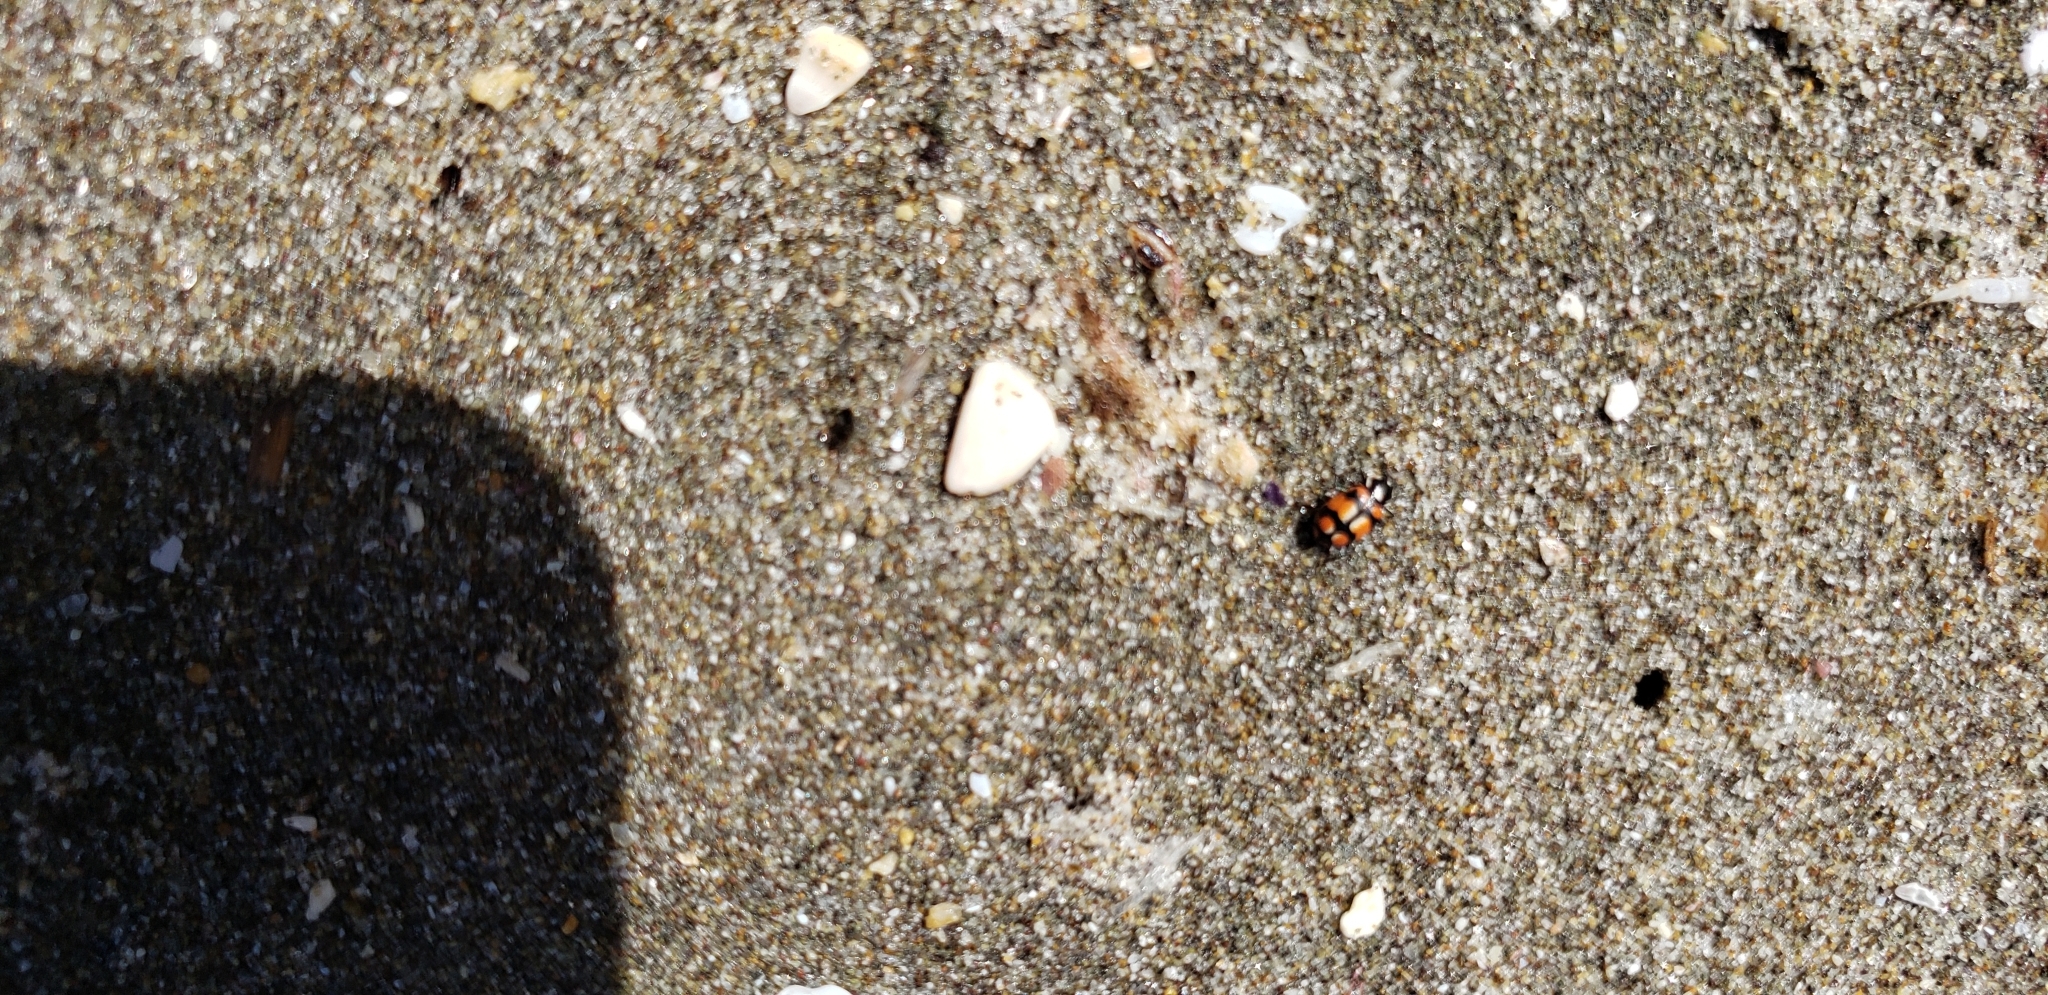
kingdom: Animalia
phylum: Arthropoda
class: Insecta
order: Coleoptera
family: Coccinellidae
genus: Eriopis
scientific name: Eriopis chilensis
